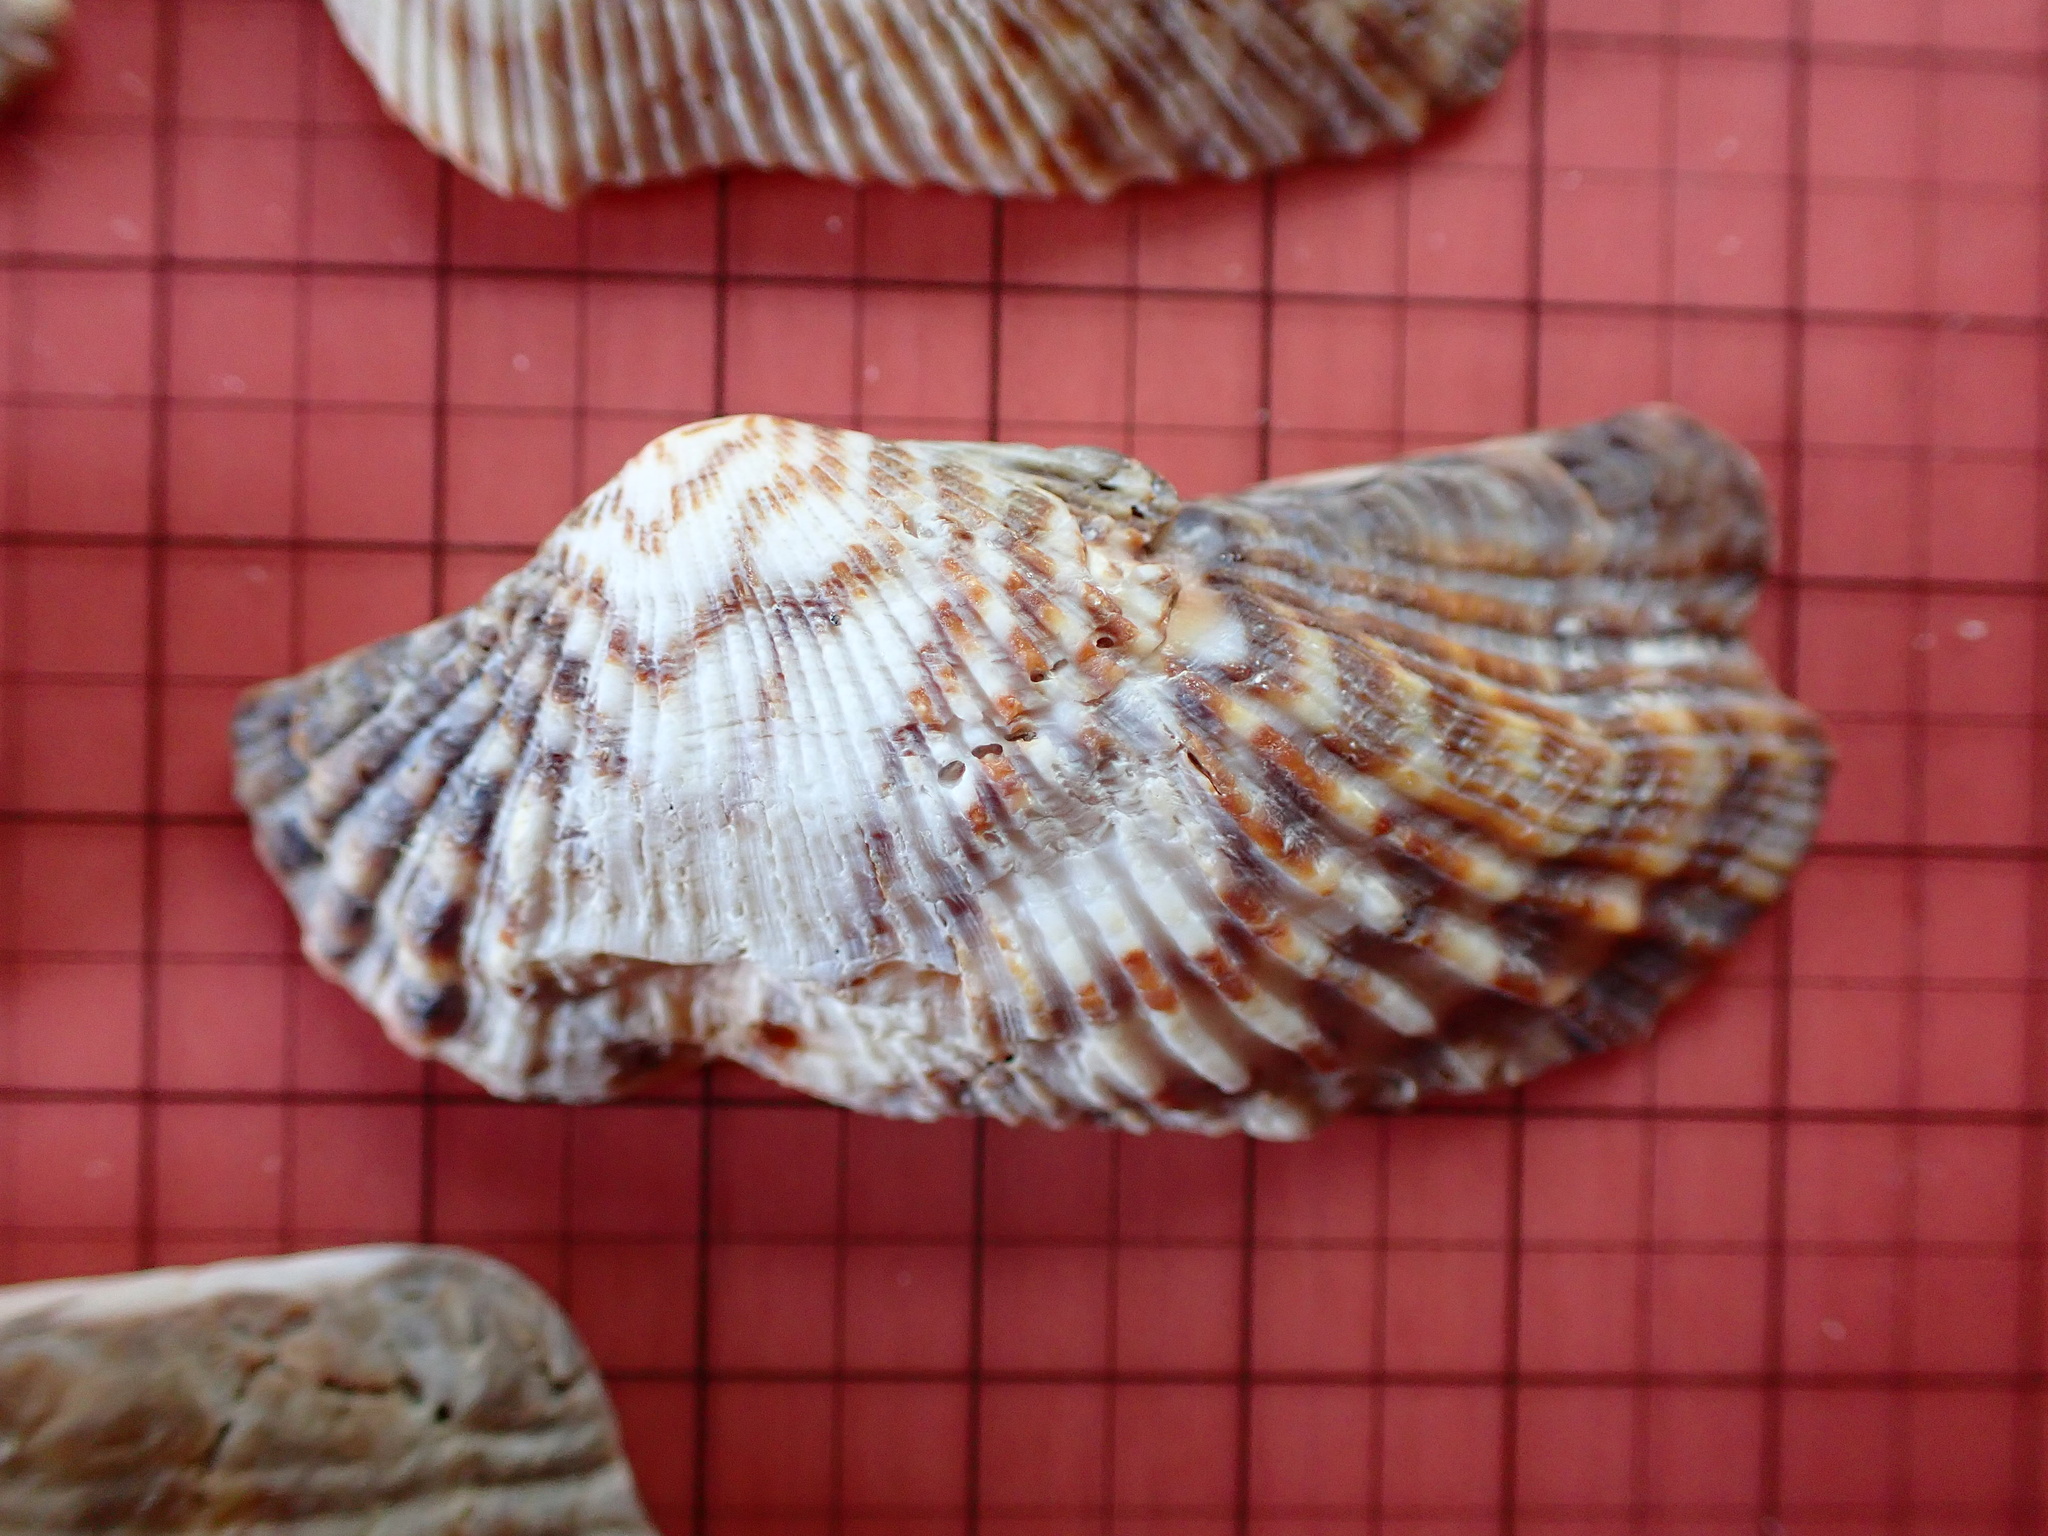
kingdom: Animalia
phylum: Mollusca
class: Bivalvia
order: Arcida
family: Arcidae
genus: Arca
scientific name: Arca zebra
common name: Atlantic turkey wing
